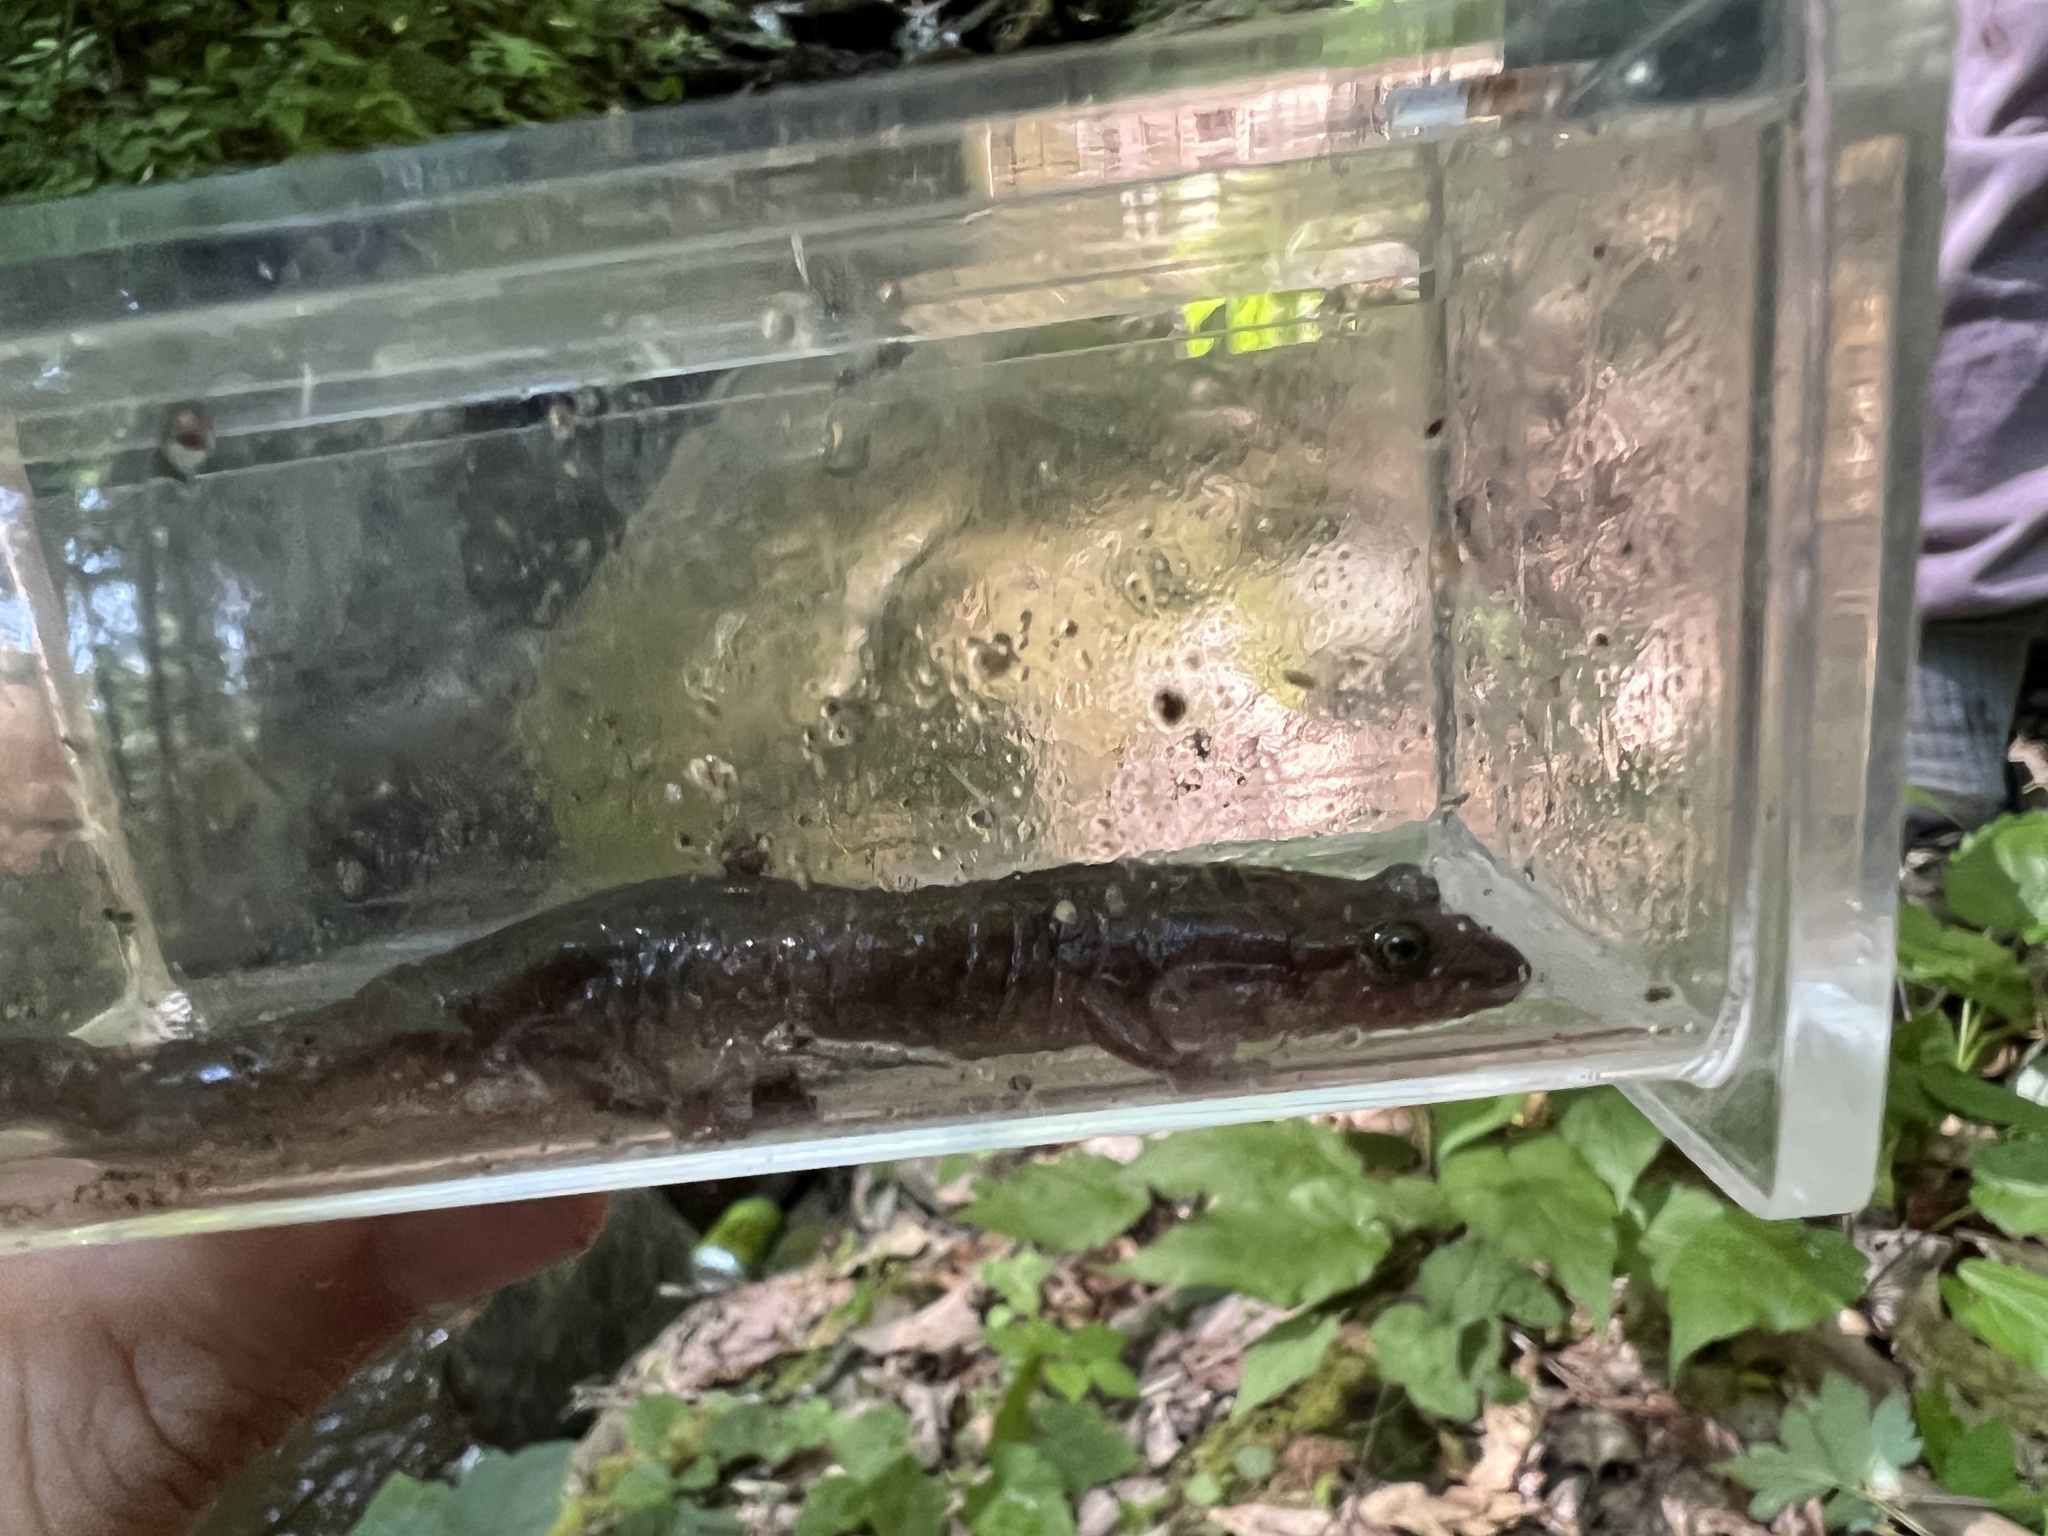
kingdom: Animalia
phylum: Chordata
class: Amphibia
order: Caudata
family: Plethodontidae
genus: Desmognathus
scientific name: Desmognathus monticola
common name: Seal salamander
